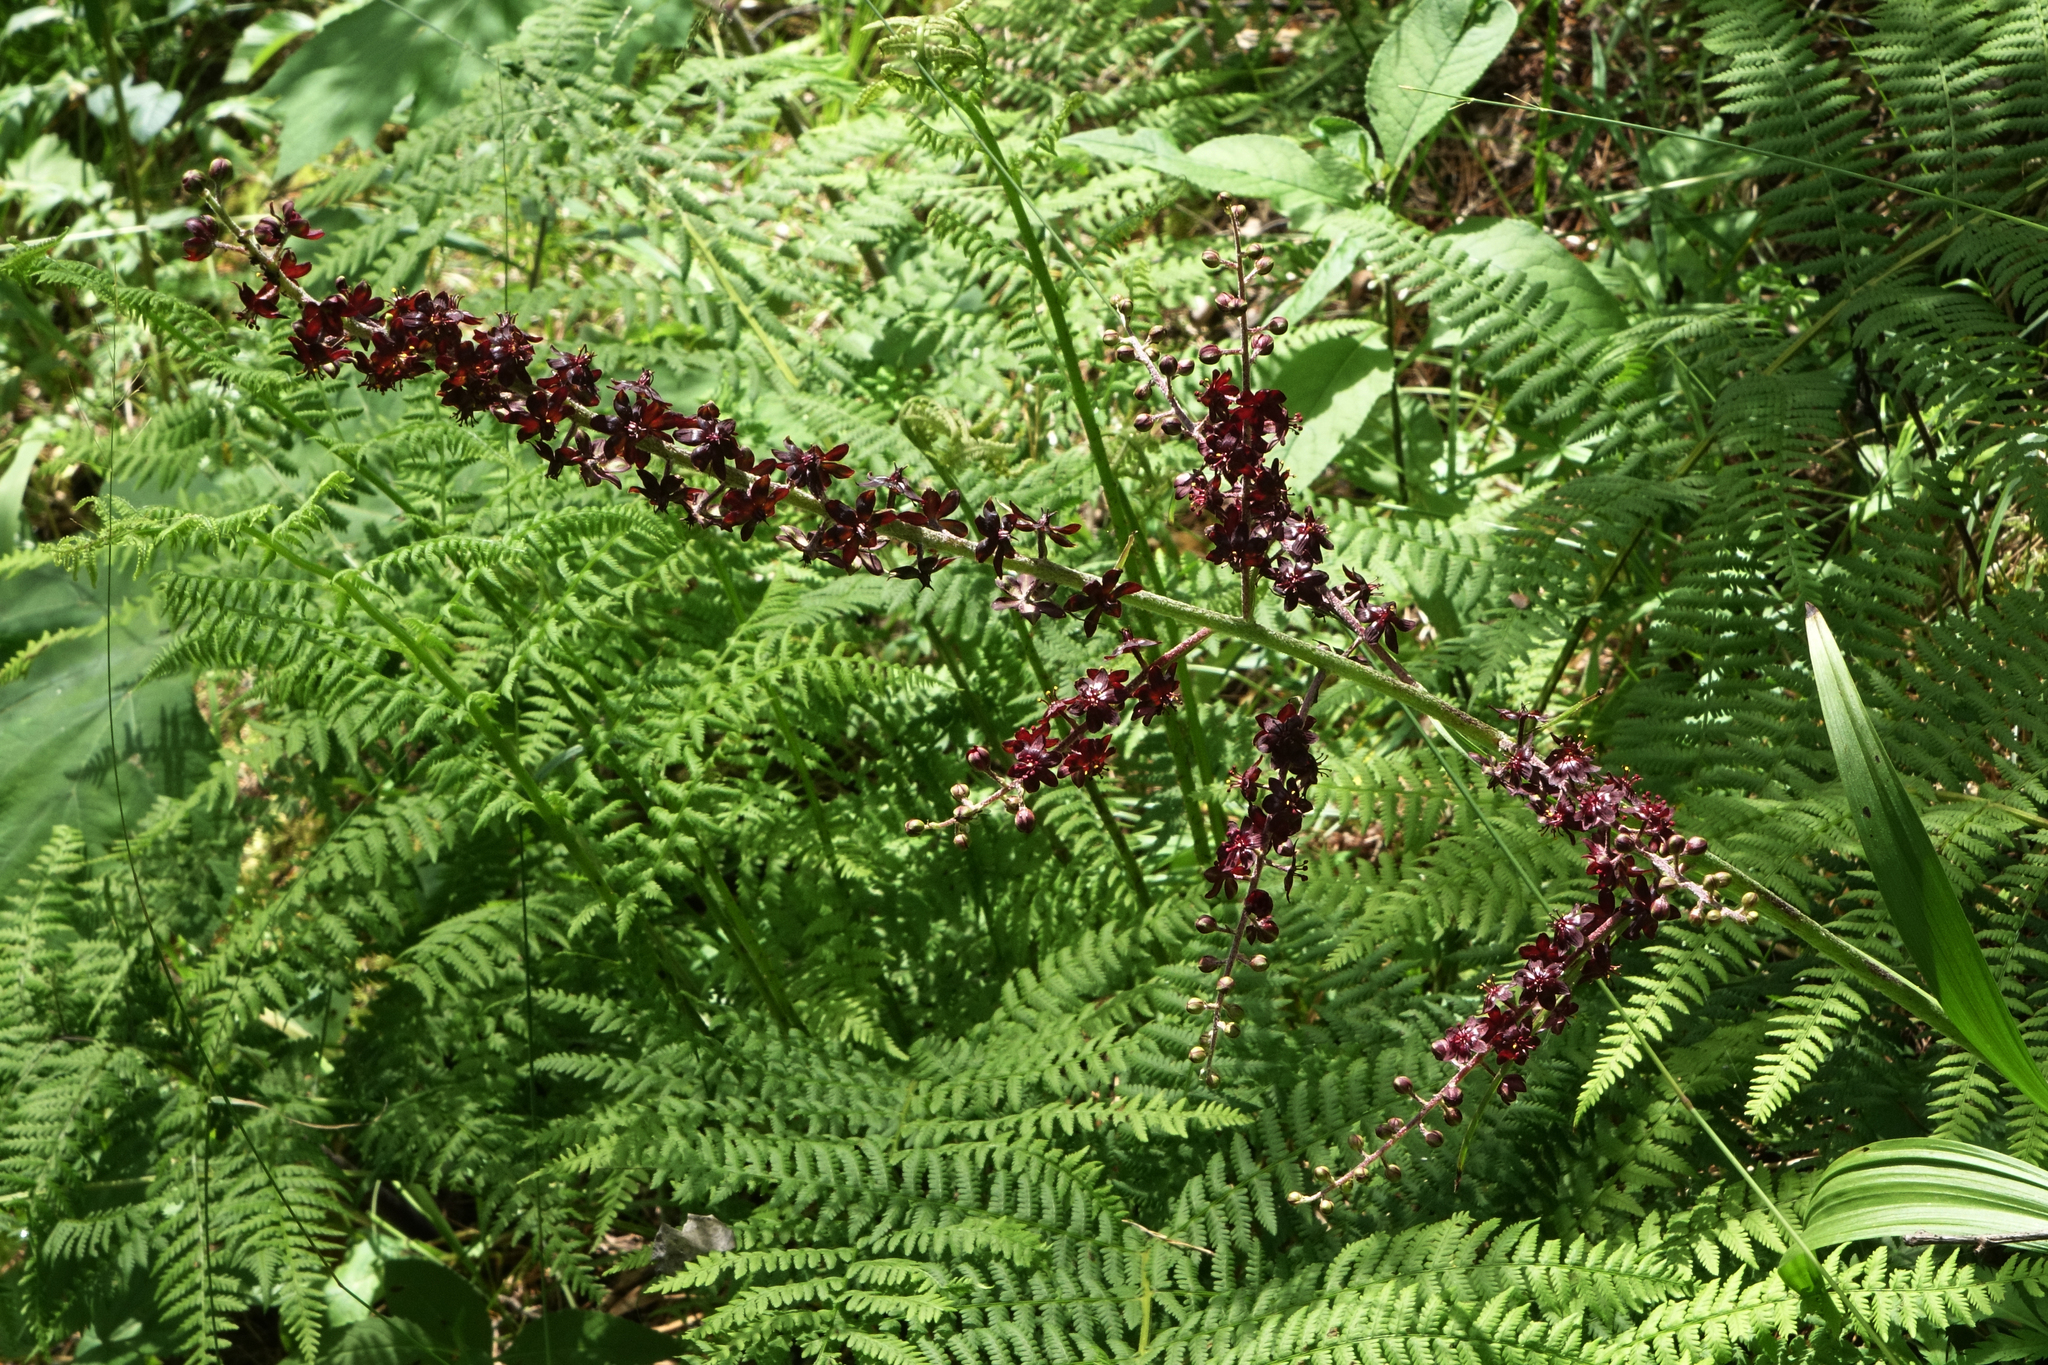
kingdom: Plantae
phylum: Tracheophyta
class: Liliopsida
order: Liliales
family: Melanthiaceae
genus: Veratrum
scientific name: Veratrum nigrum
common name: Black veratrum
